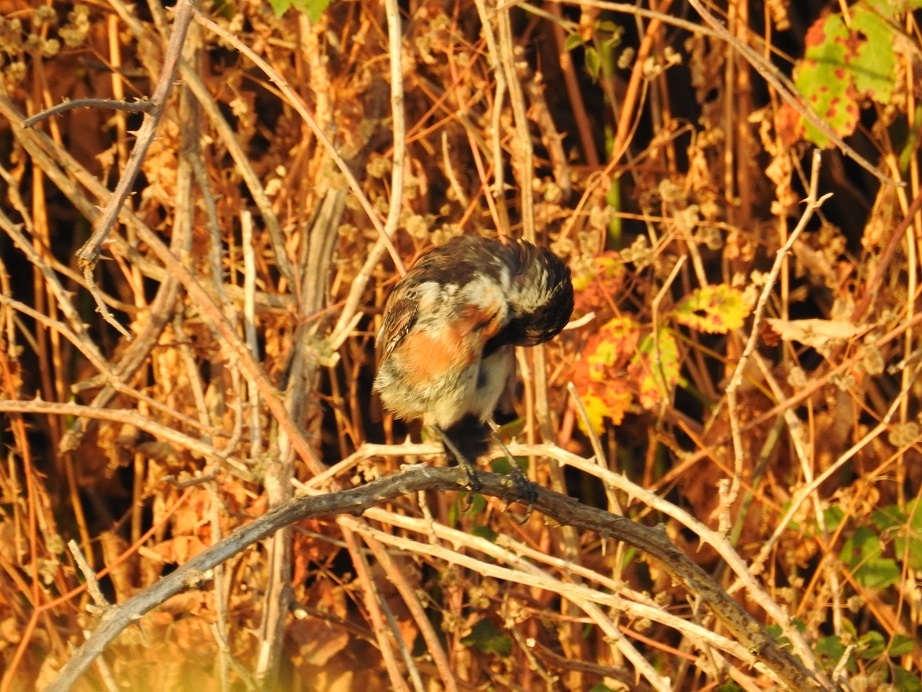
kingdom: Animalia
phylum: Chordata
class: Aves
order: Passeriformes
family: Muscicapidae
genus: Saxicola
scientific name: Saxicola rubicola
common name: European stonechat
